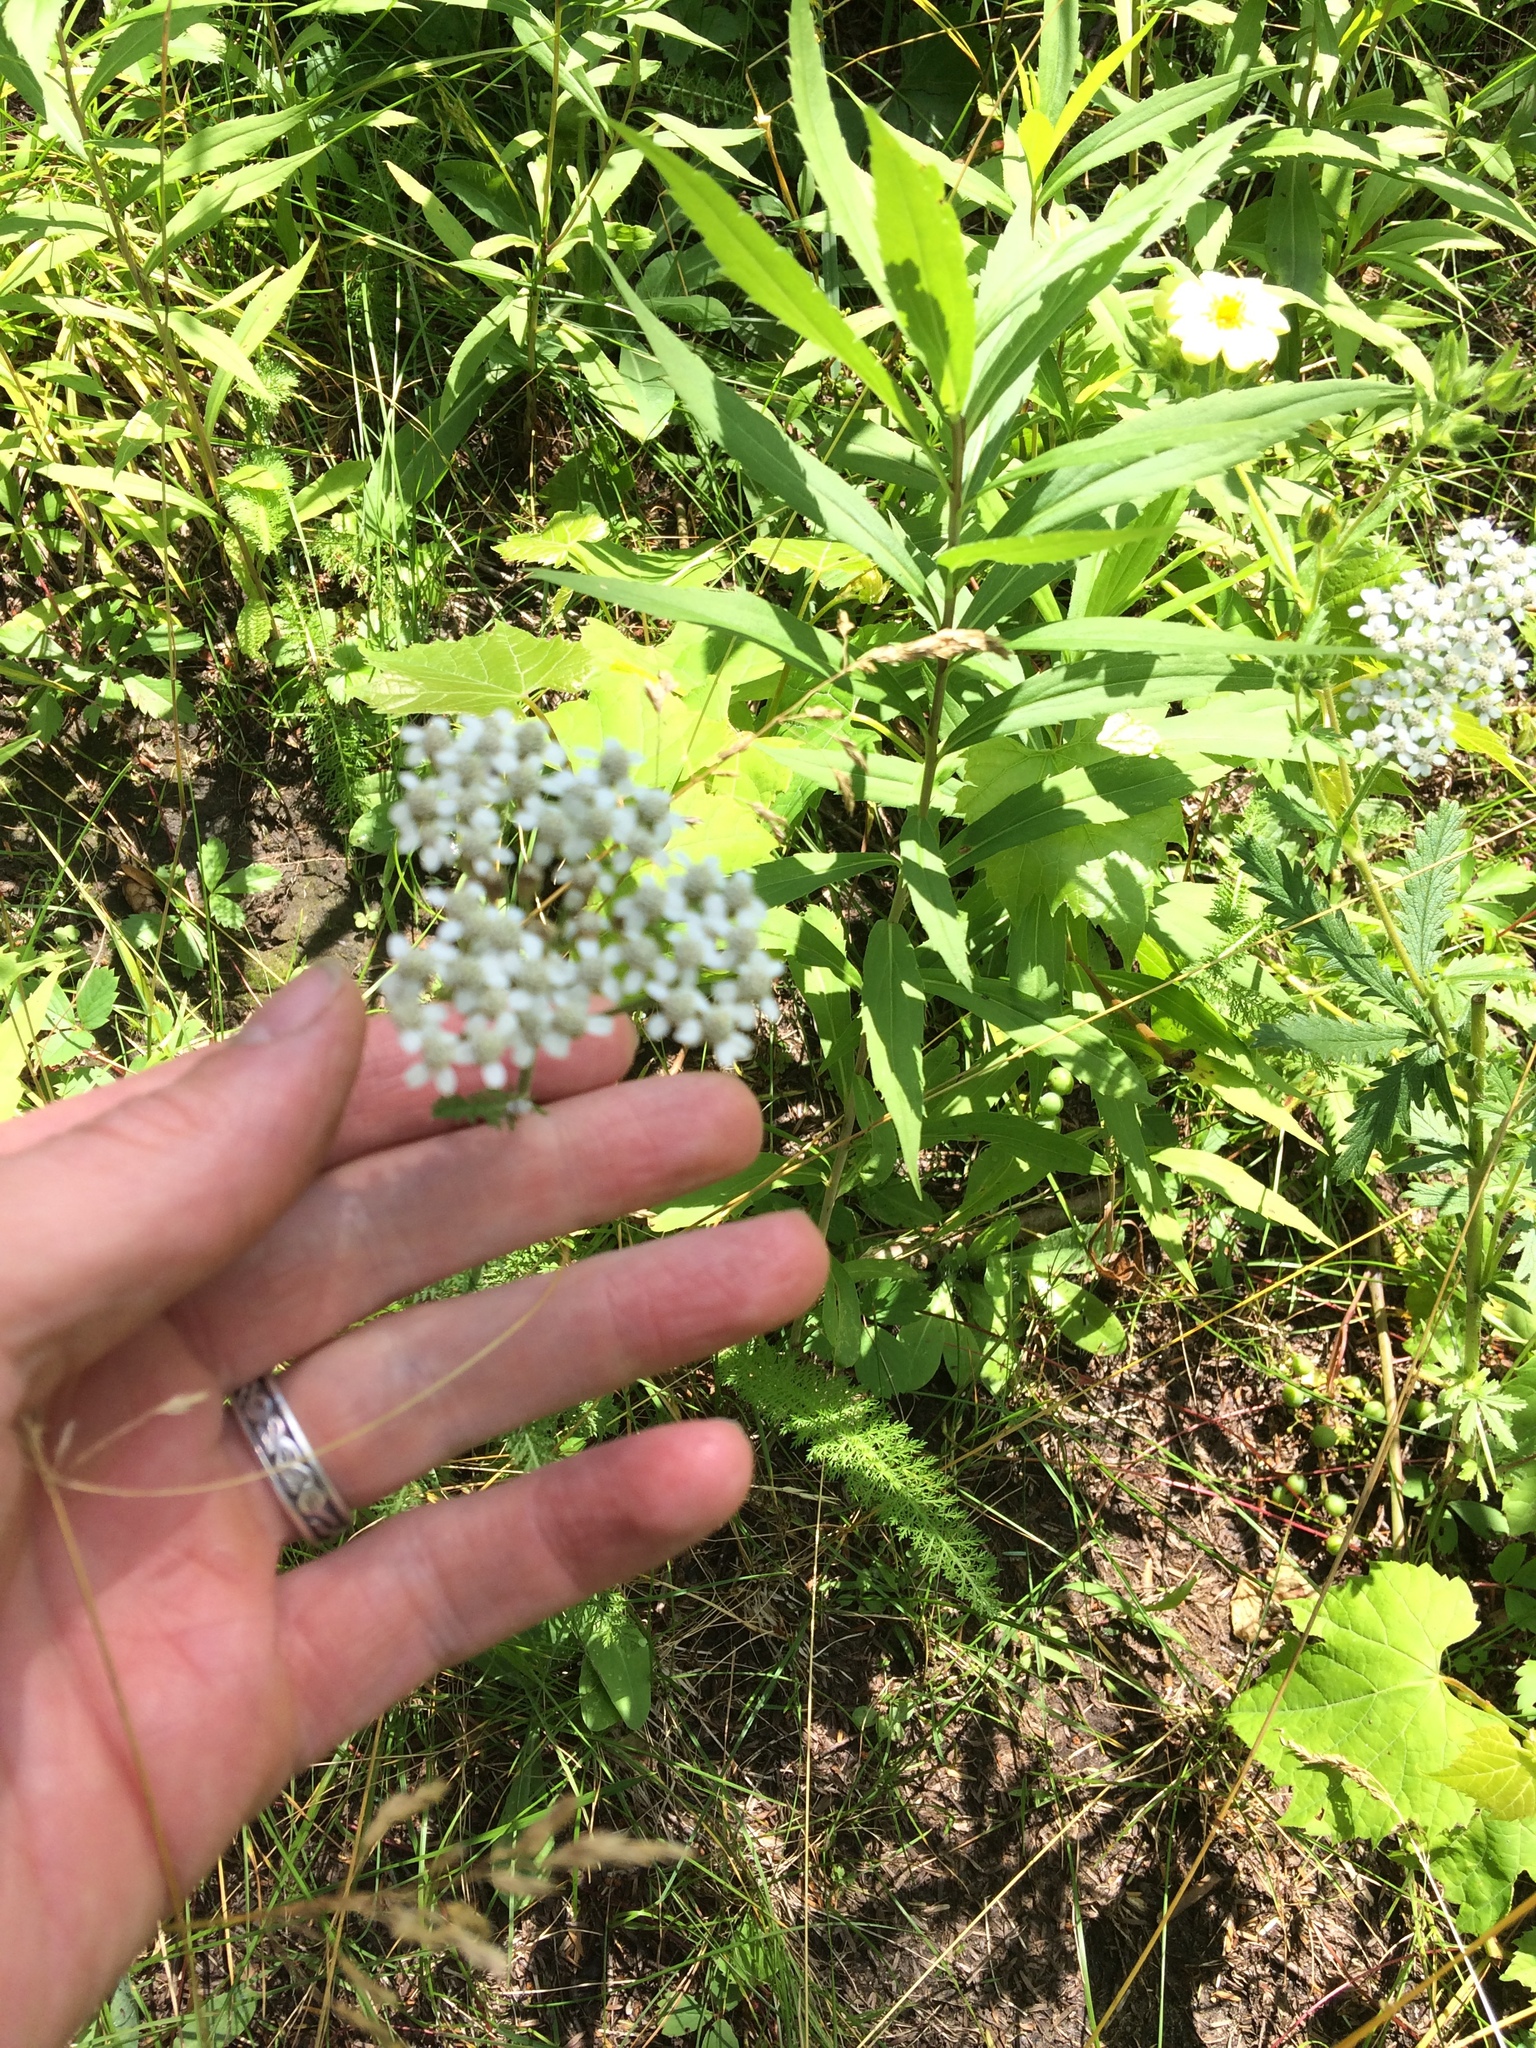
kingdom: Plantae
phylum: Tracheophyta
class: Magnoliopsida
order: Asterales
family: Asteraceae
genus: Achillea
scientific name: Achillea millefolium
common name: Yarrow
